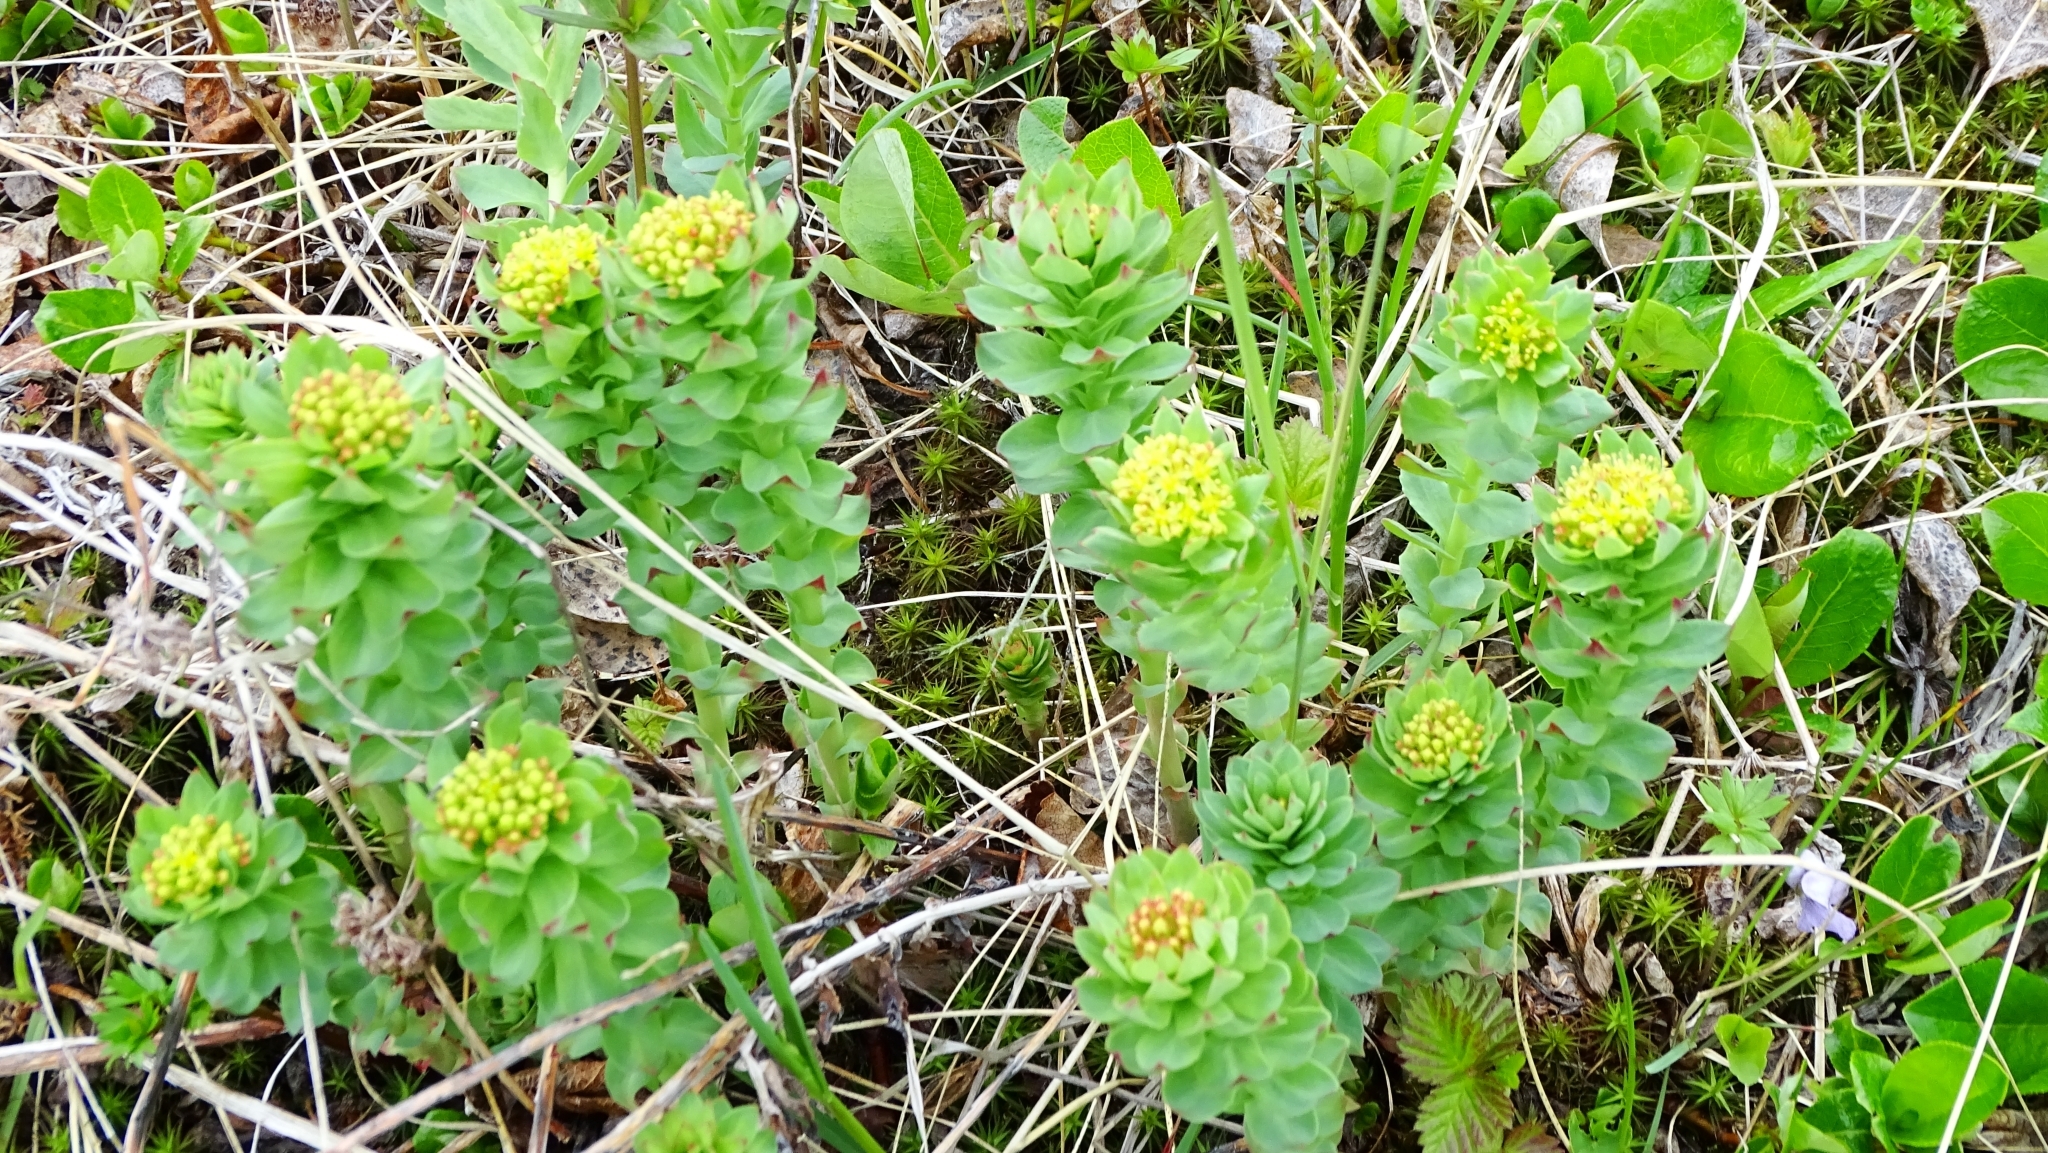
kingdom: Plantae
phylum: Tracheophyta
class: Magnoliopsida
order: Saxifragales
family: Crassulaceae
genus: Rhodiola
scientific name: Rhodiola rosea
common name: Roseroot
